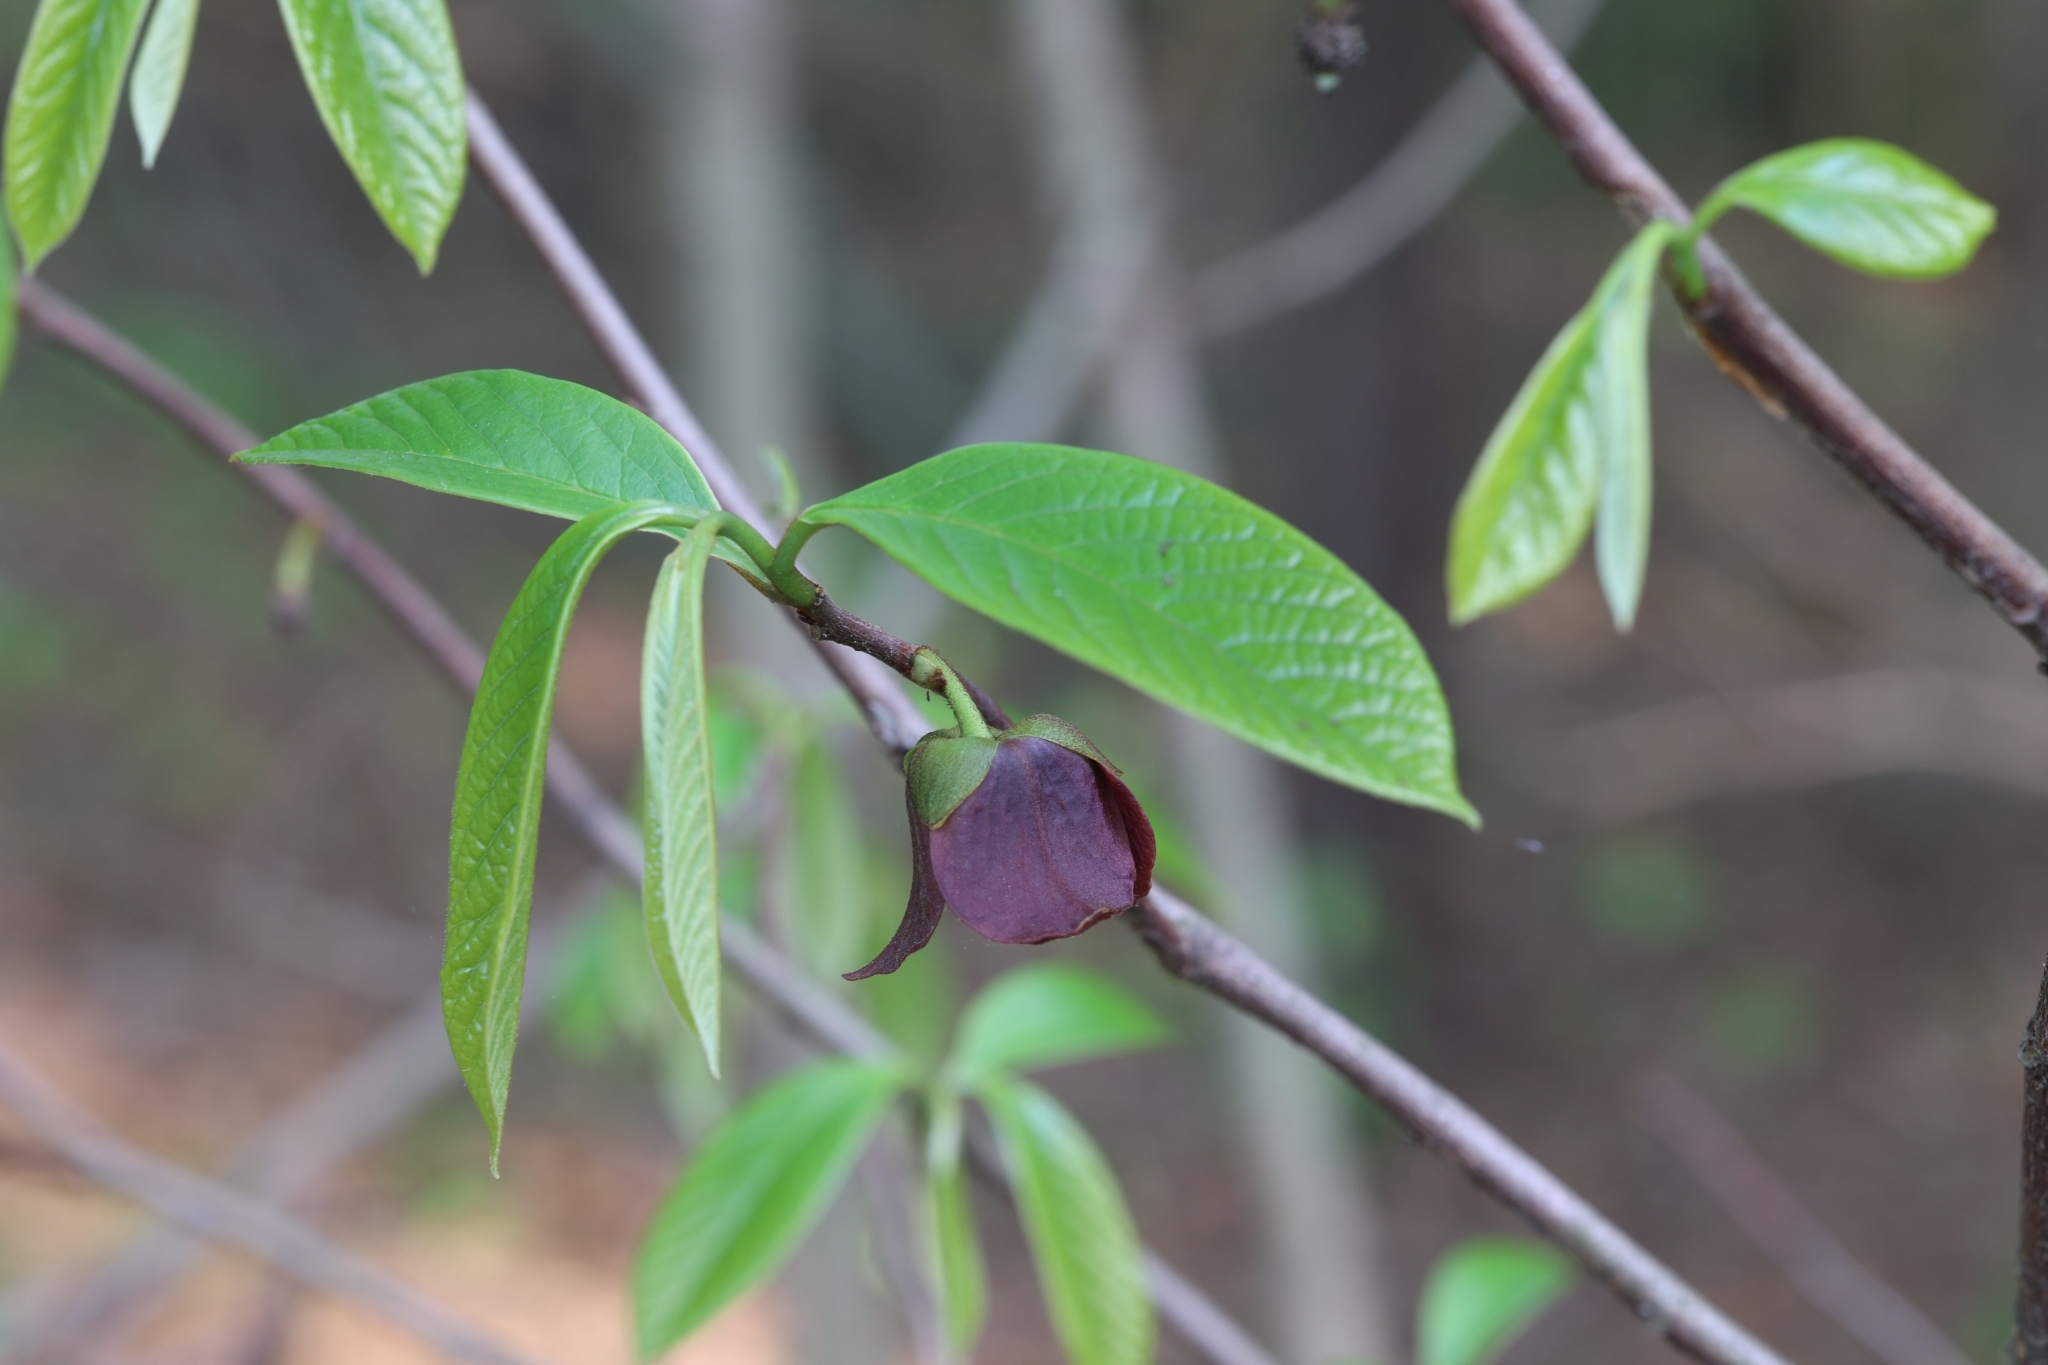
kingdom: Plantae
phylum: Tracheophyta
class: Magnoliopsida
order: Magnoliales
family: Annonaceae
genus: Asimina
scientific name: Asimina triloba
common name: Dog-banana
